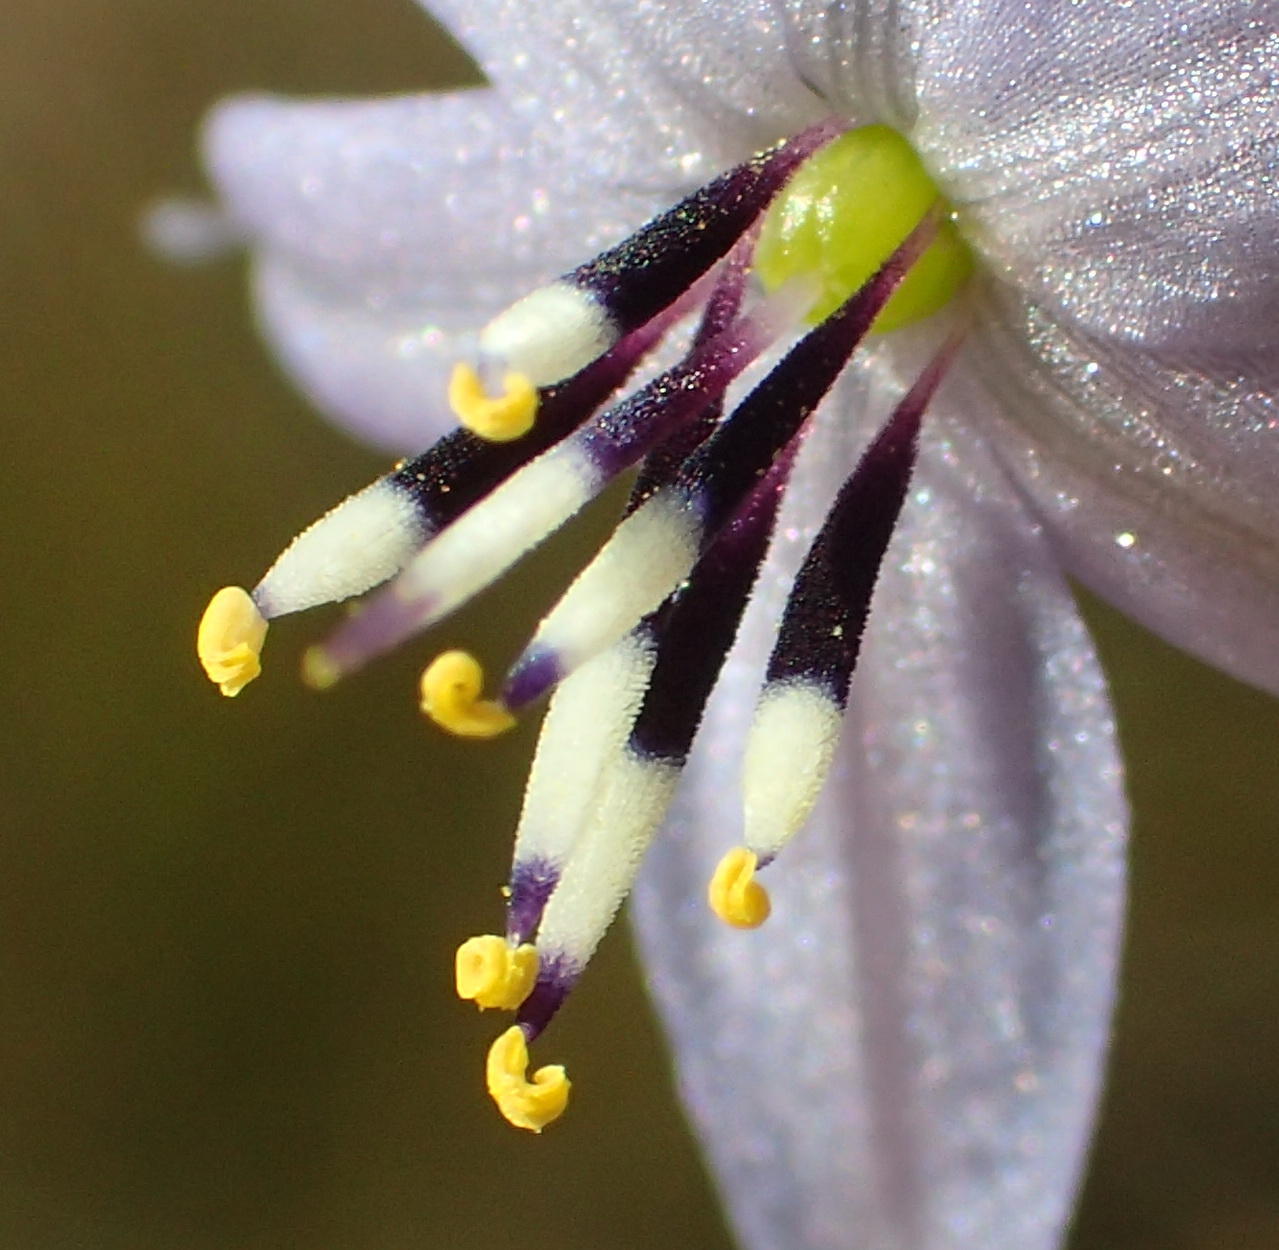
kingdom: Plantae
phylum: Tracheophyta
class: Liliopsida
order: Asparagales
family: Asphodelaceae
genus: Caesia
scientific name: Caesia contorta
